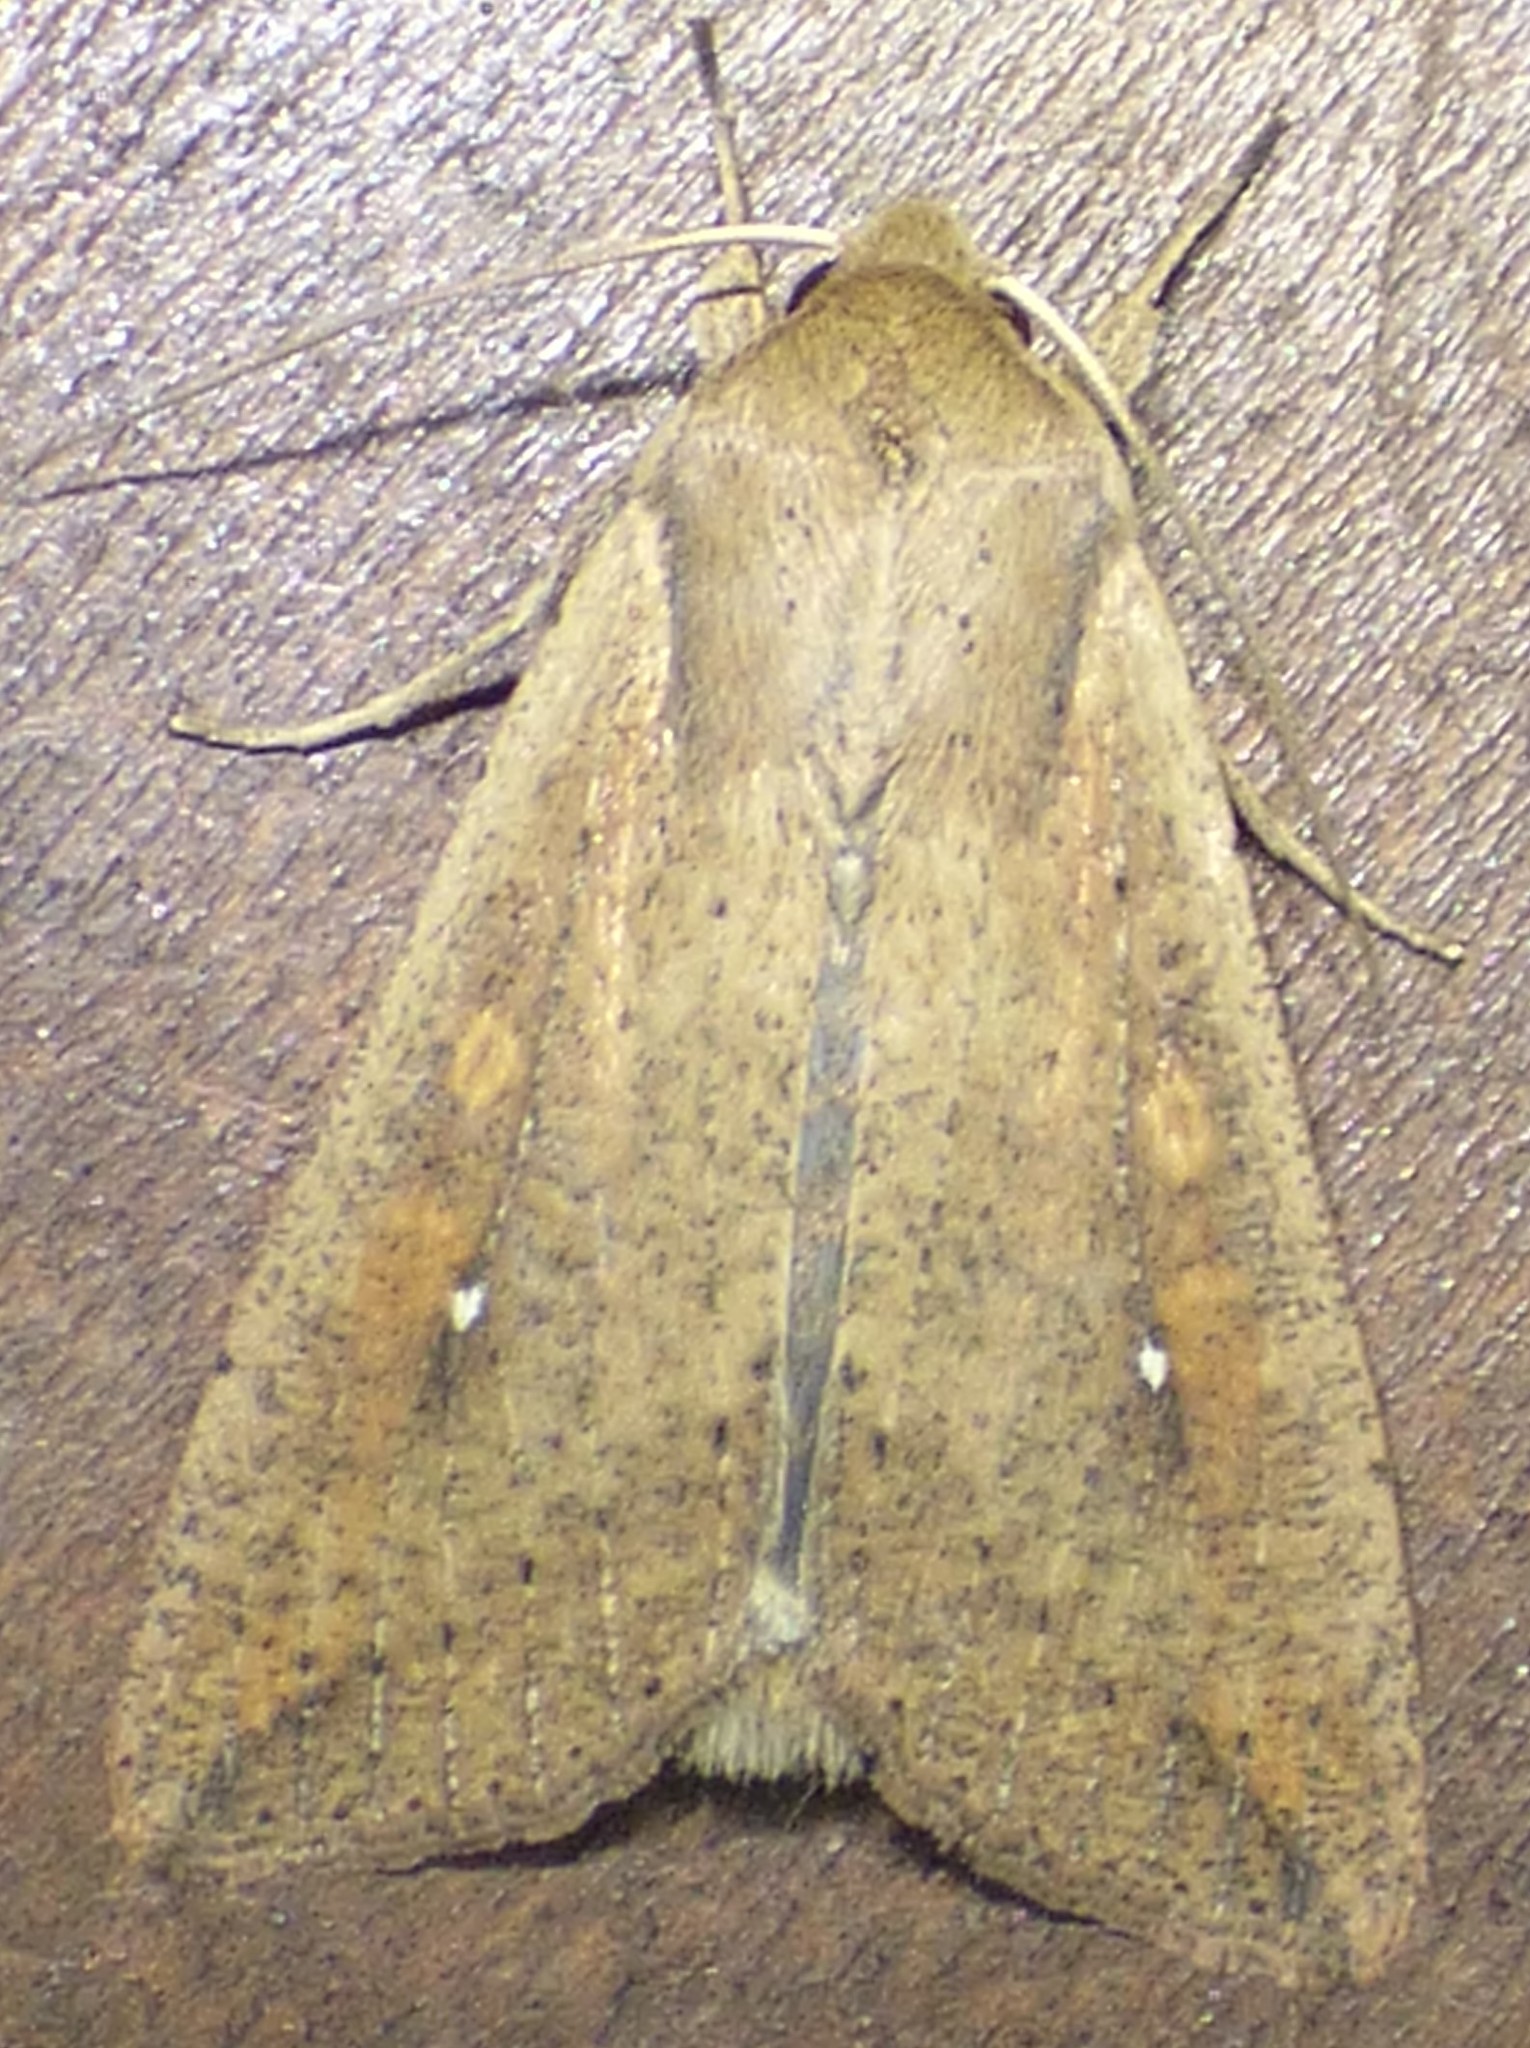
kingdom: Animalia
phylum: Arthropoda
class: Insecta
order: Lepidoptera
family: Noctuidae
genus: Mythimna
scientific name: Mythimna unipuncta
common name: White-speck
